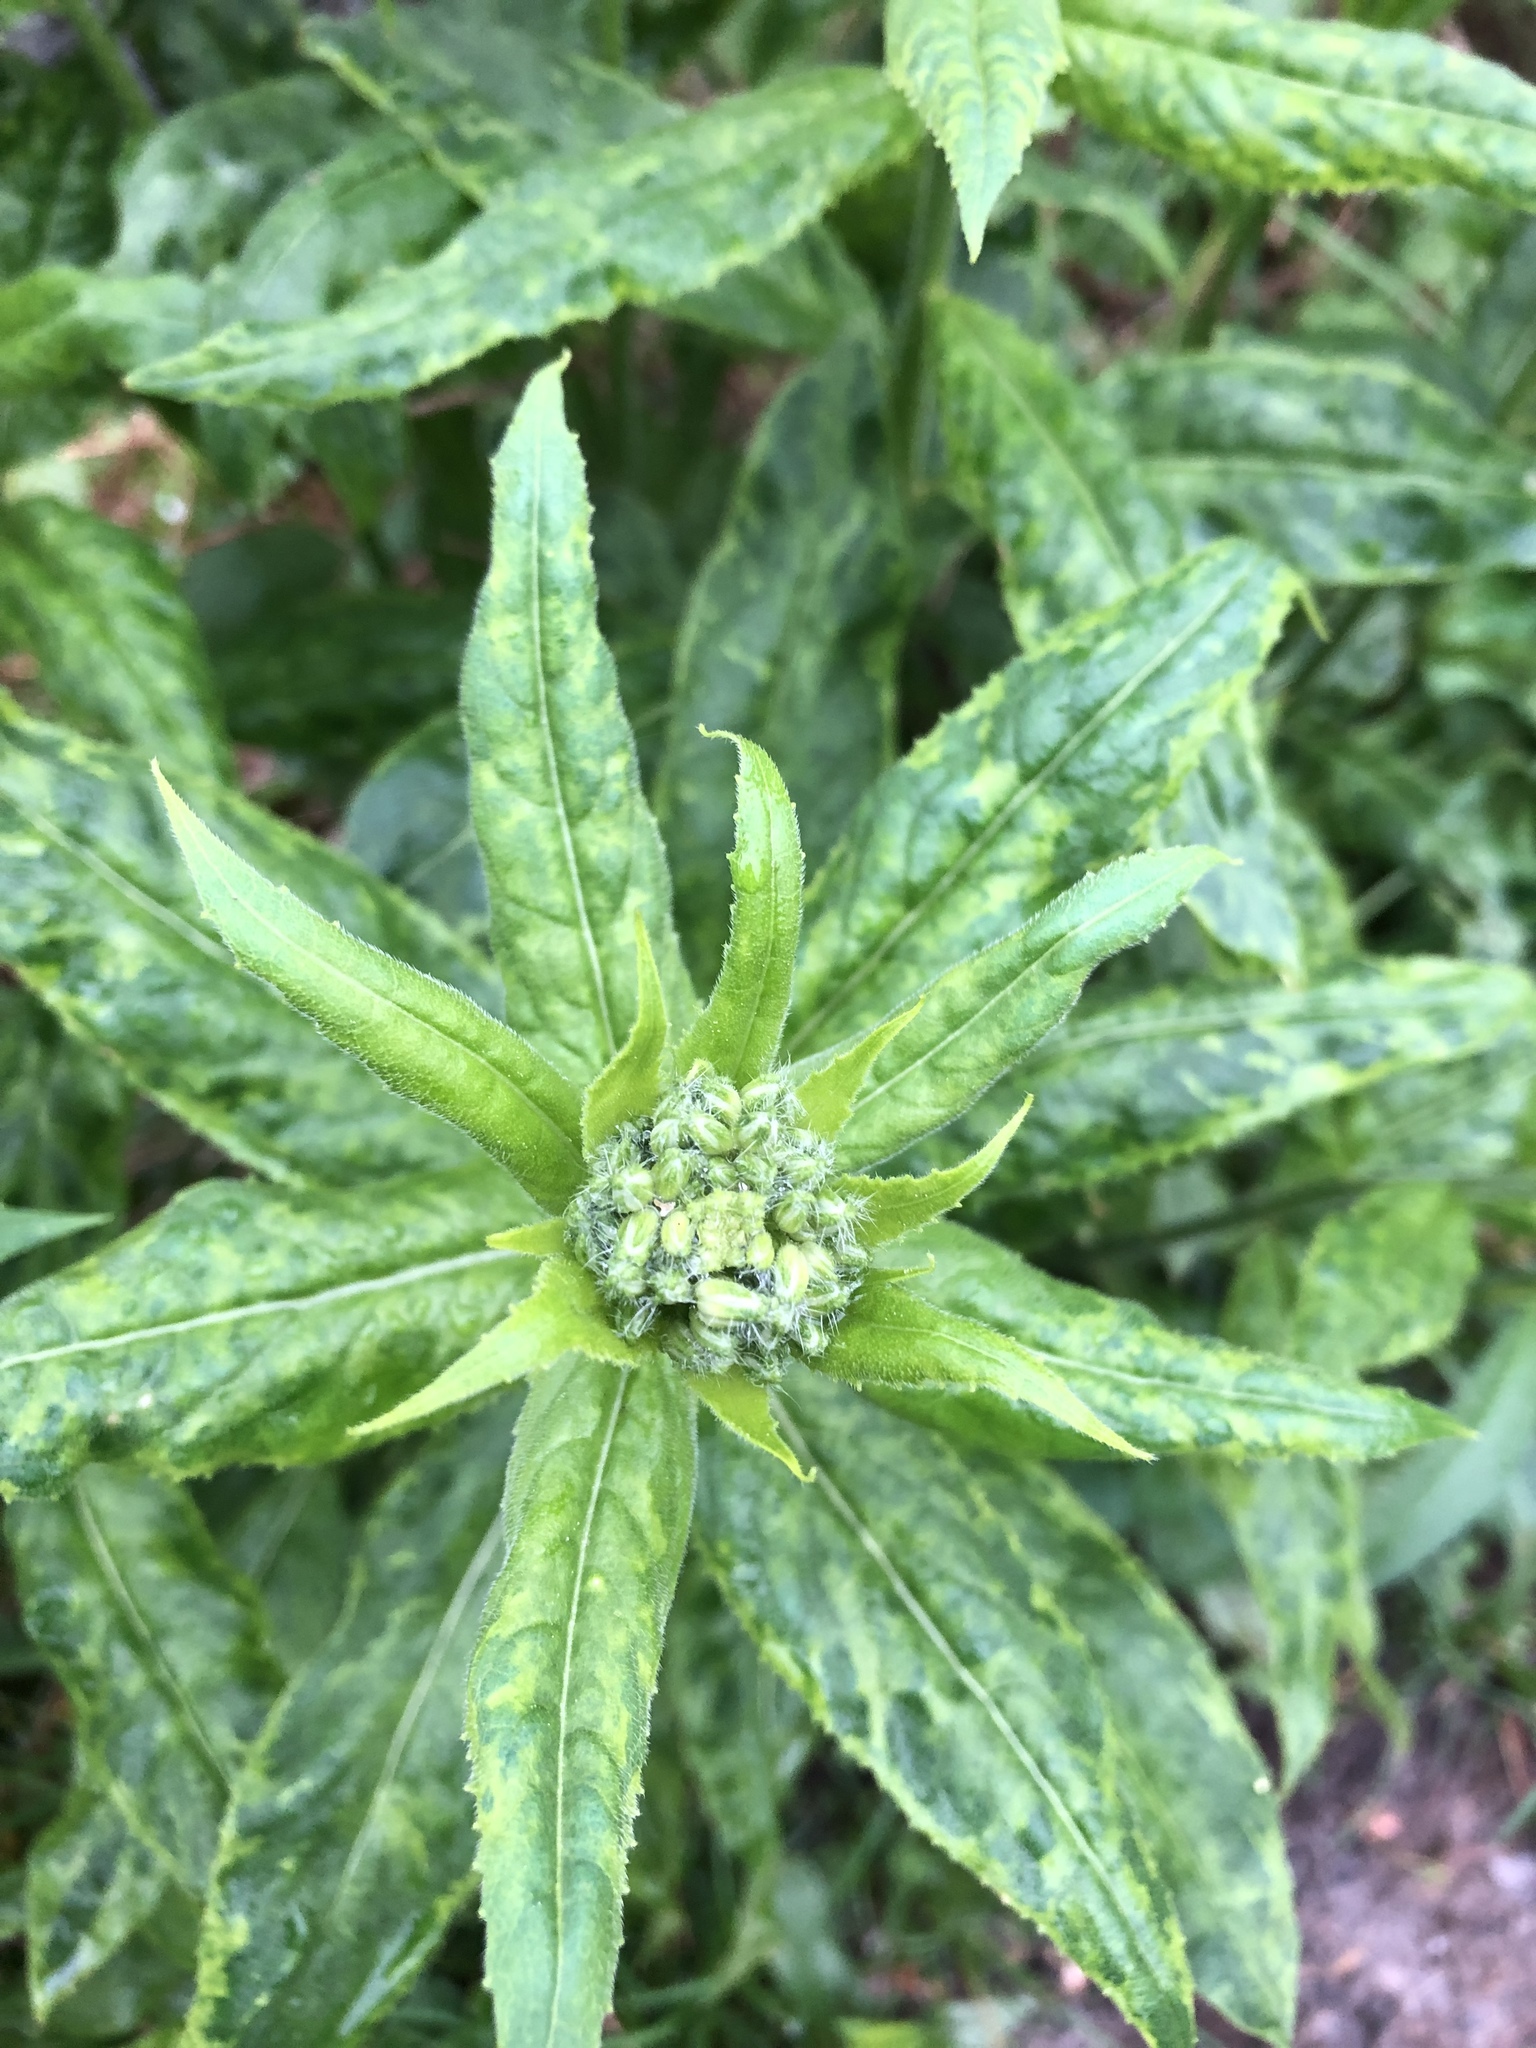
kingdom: Plantae
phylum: Tracheophyta
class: Magnoliopsida
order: Brassicales
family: Brassicaceae
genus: Hesperis
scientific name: Hesperis matronalis
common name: Dame's-violet
